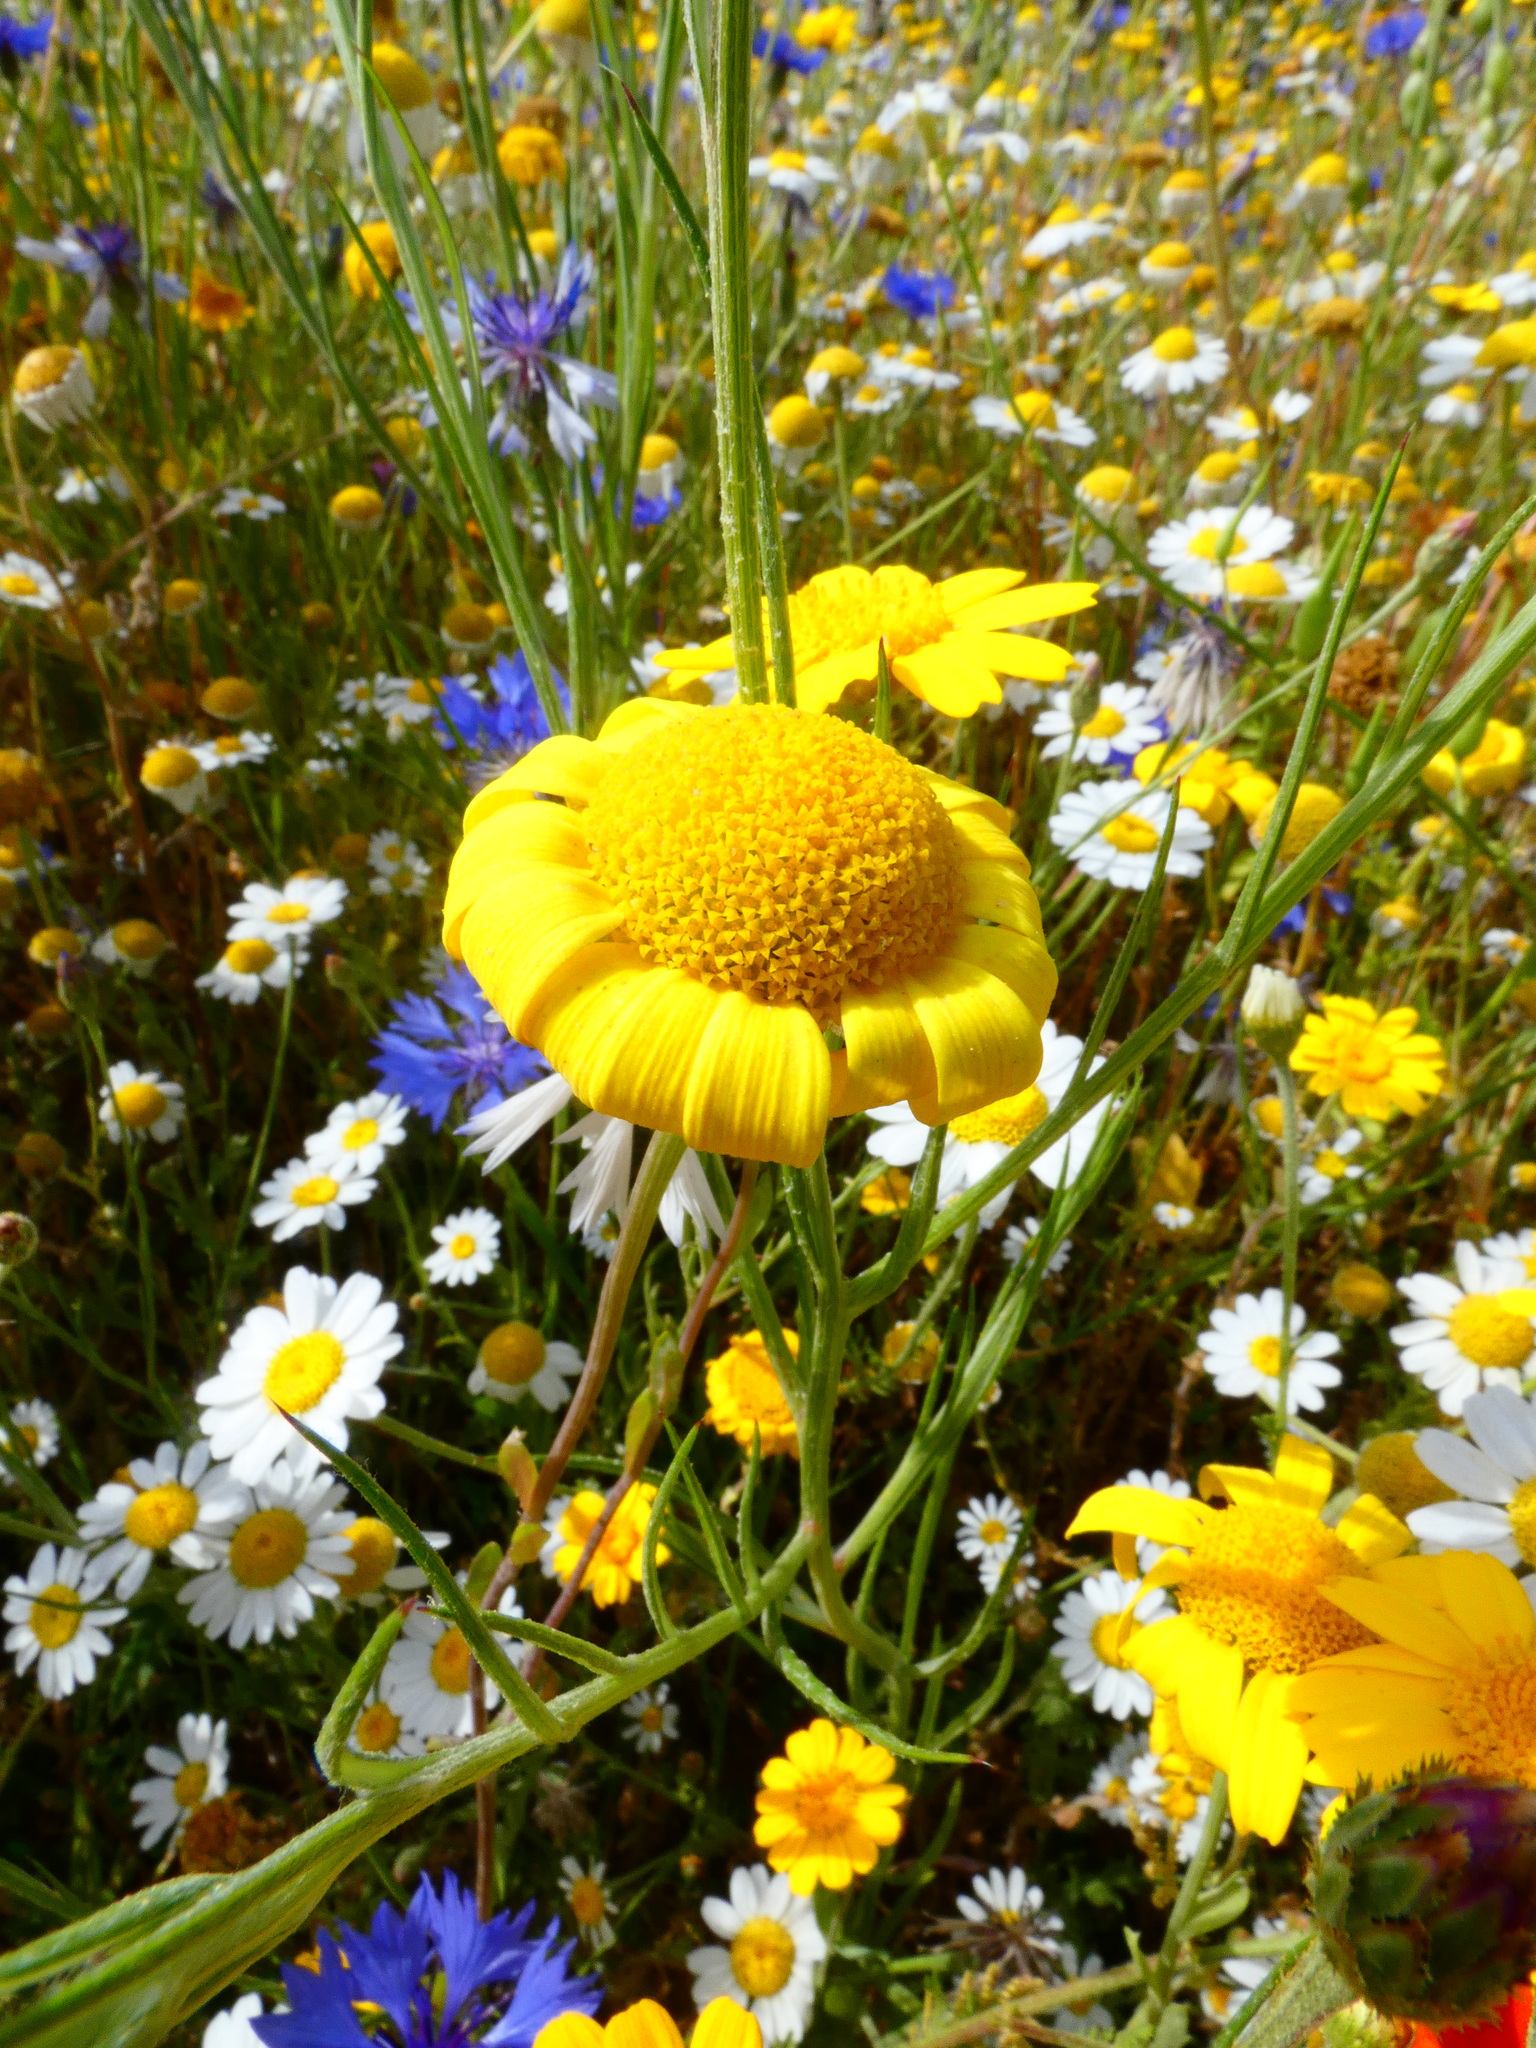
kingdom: Plantae
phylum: Tracheophyta
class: Magnoliopsida
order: Asterales
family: Asteraceae
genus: Glebionis
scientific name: Glebionis segetum
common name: Corndaisy
